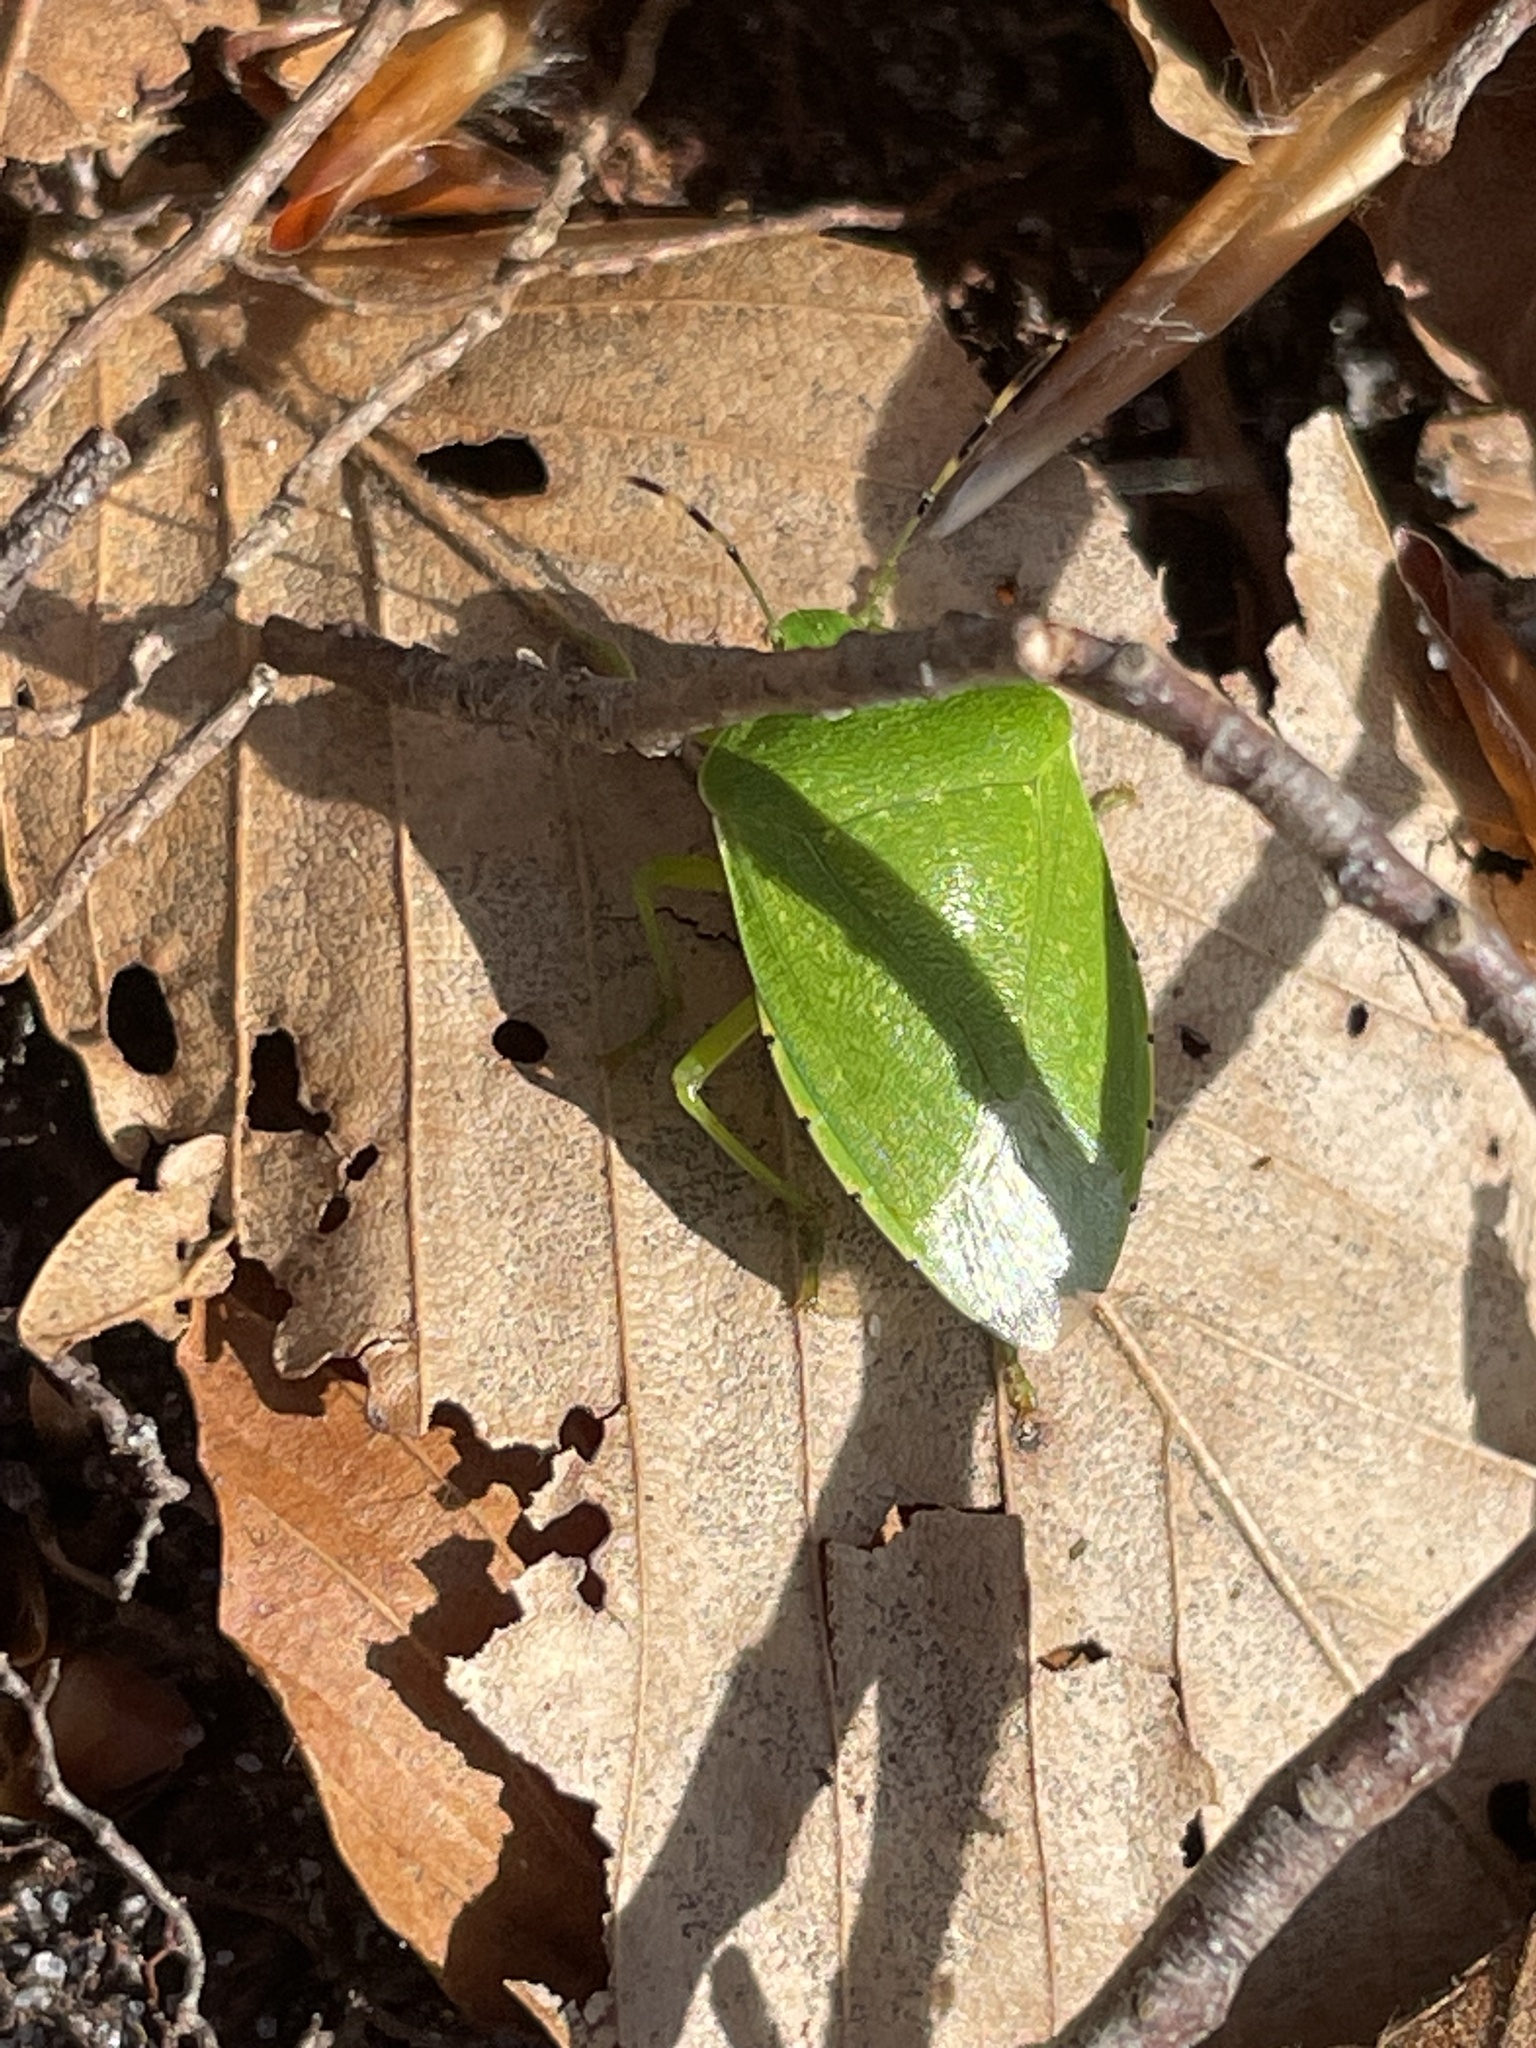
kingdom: Animalia
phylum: Arthropoda
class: Insecta
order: Hemiptera
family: Pentatomidae
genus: Chinavia
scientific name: Chinavia hilaris
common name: Green stink bug
